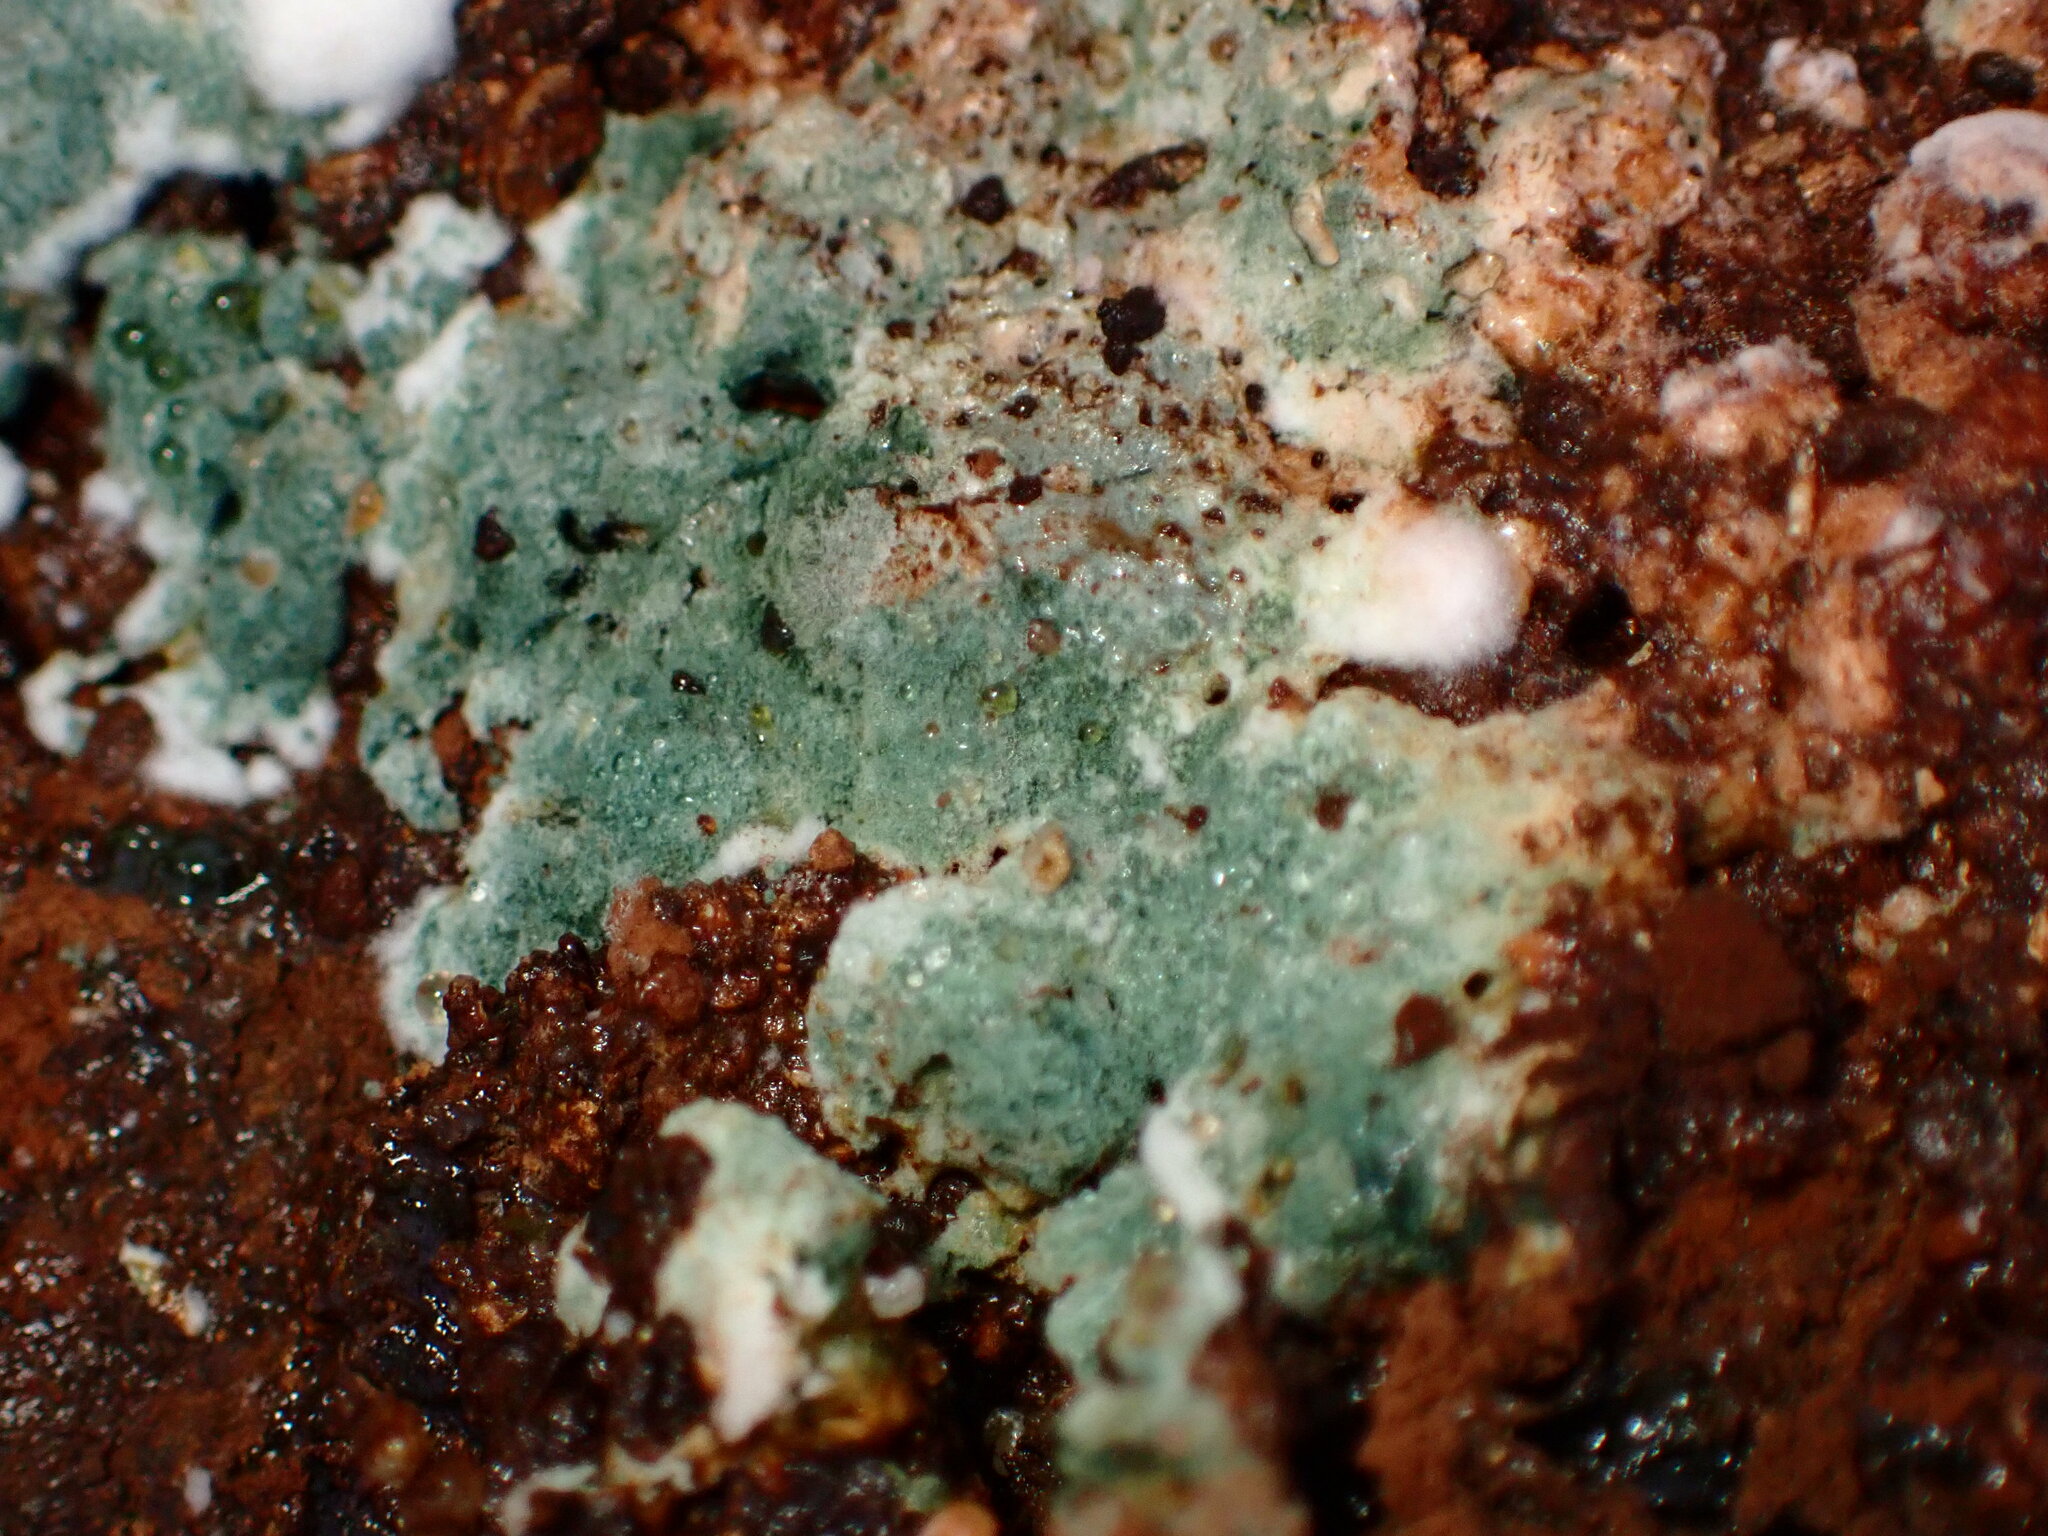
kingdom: Fungi
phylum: Ascomycota
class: Sordariomycetes
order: Hypocreales
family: Hypocreaceae
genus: Trichoderma
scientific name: Trichoderma viride
